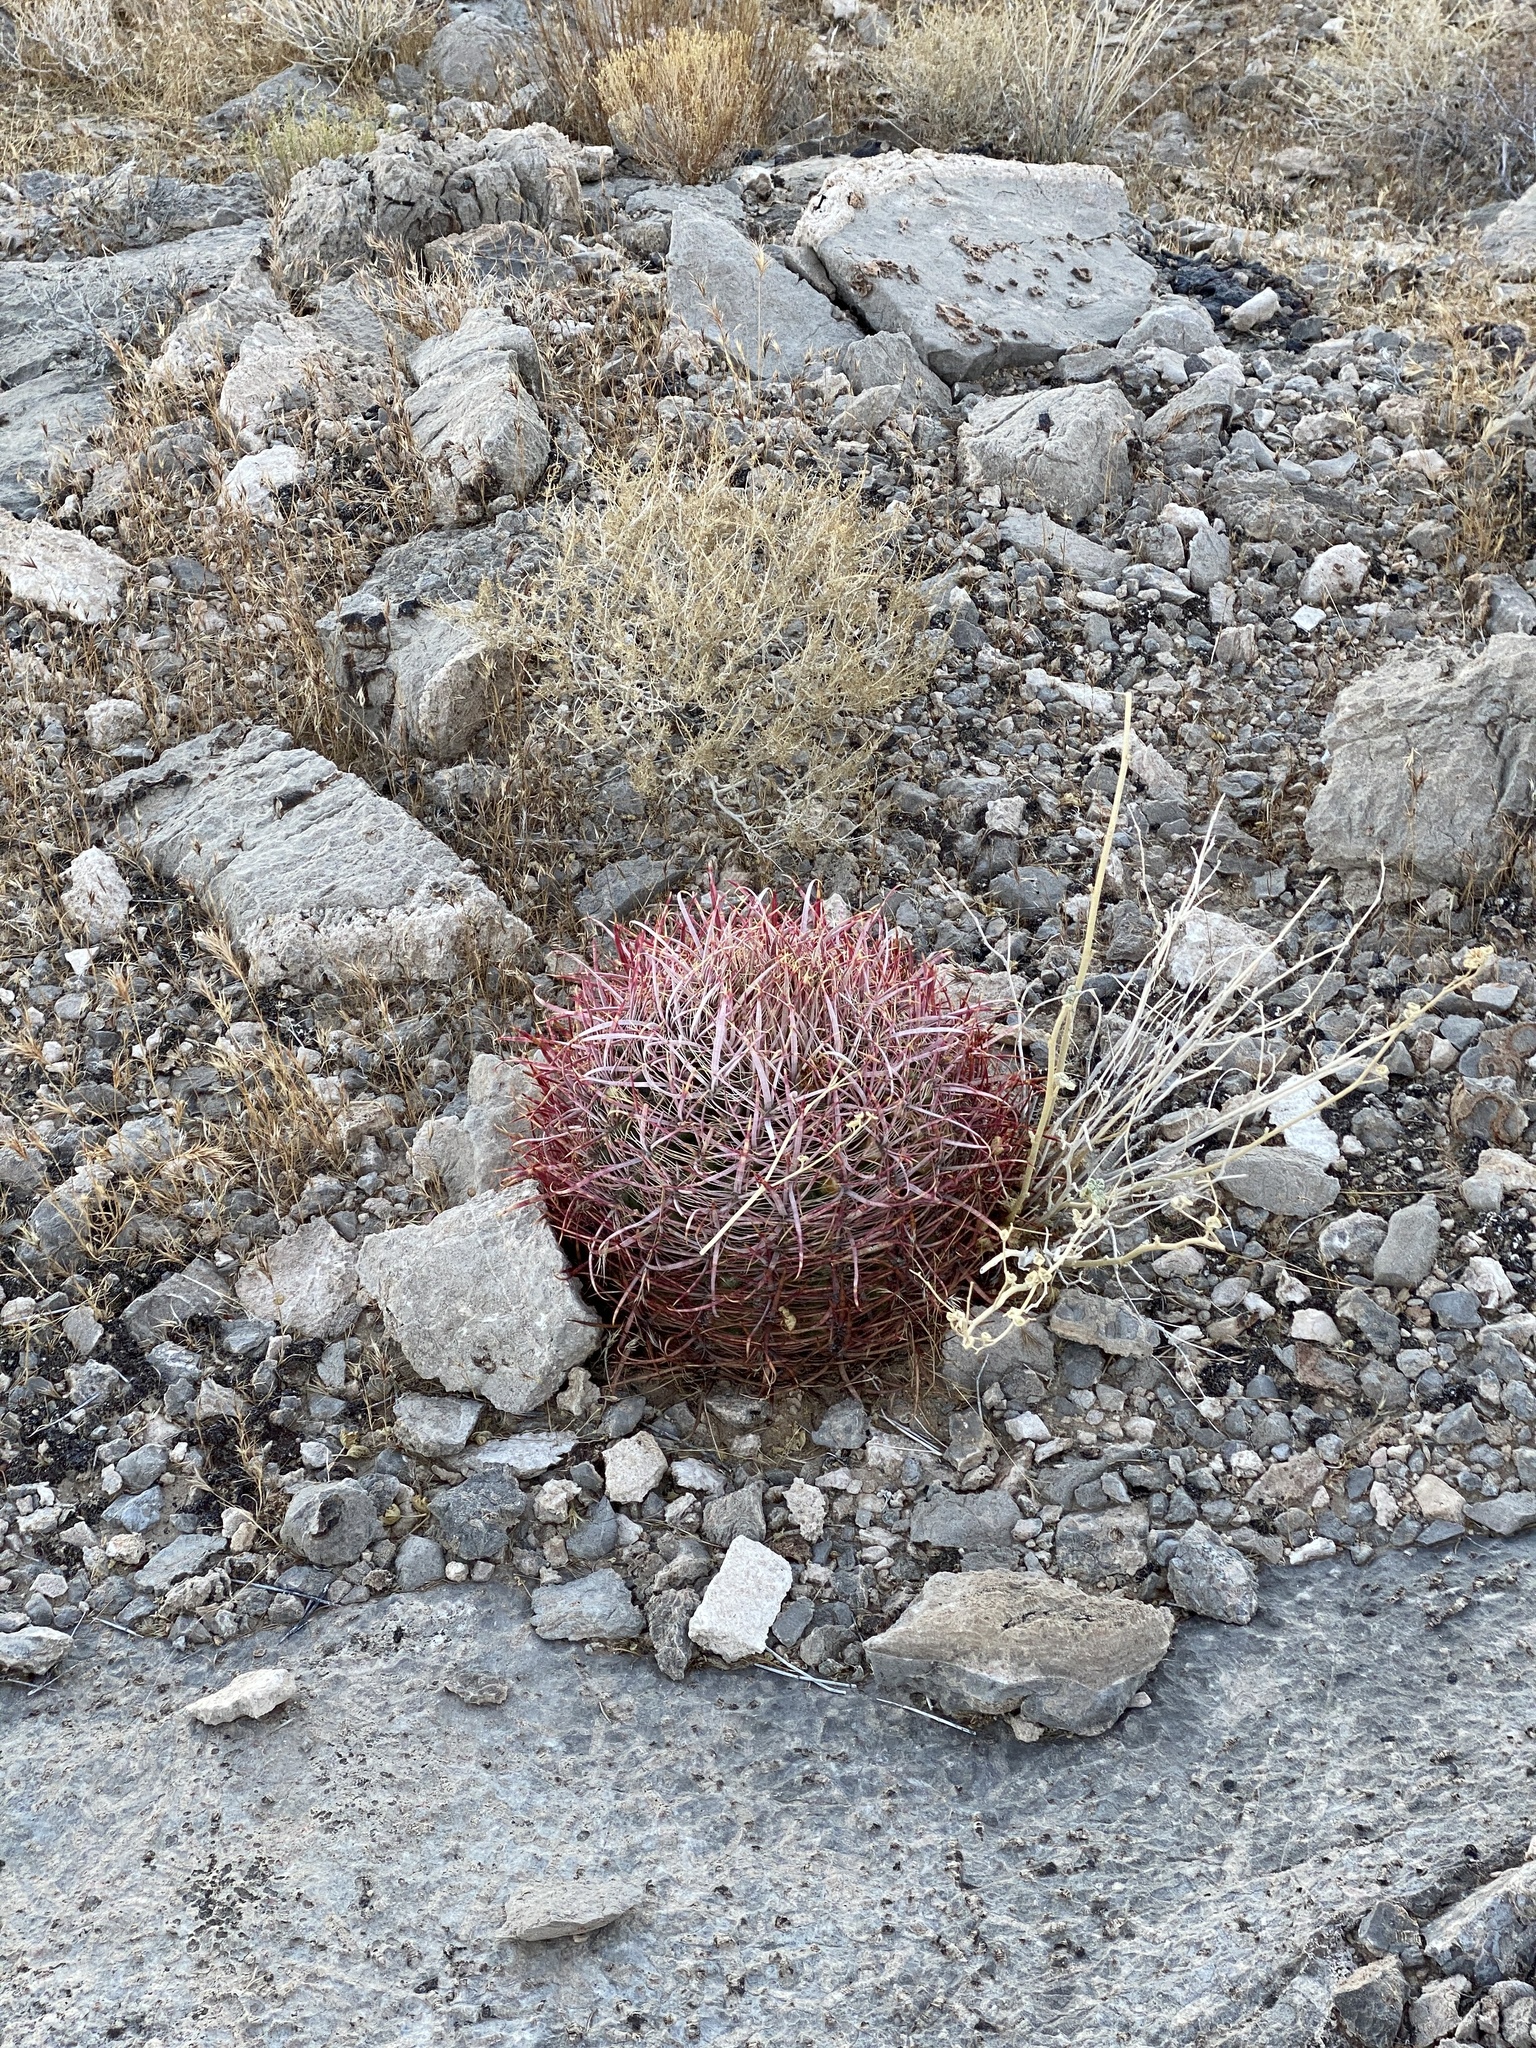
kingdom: Plantae
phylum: Tracheophyta
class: Magnoliopsida
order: Caryophyllales
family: Cactaceae
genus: Ferocactus
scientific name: Ferocactus cylindraceus
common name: California barrel cactus
